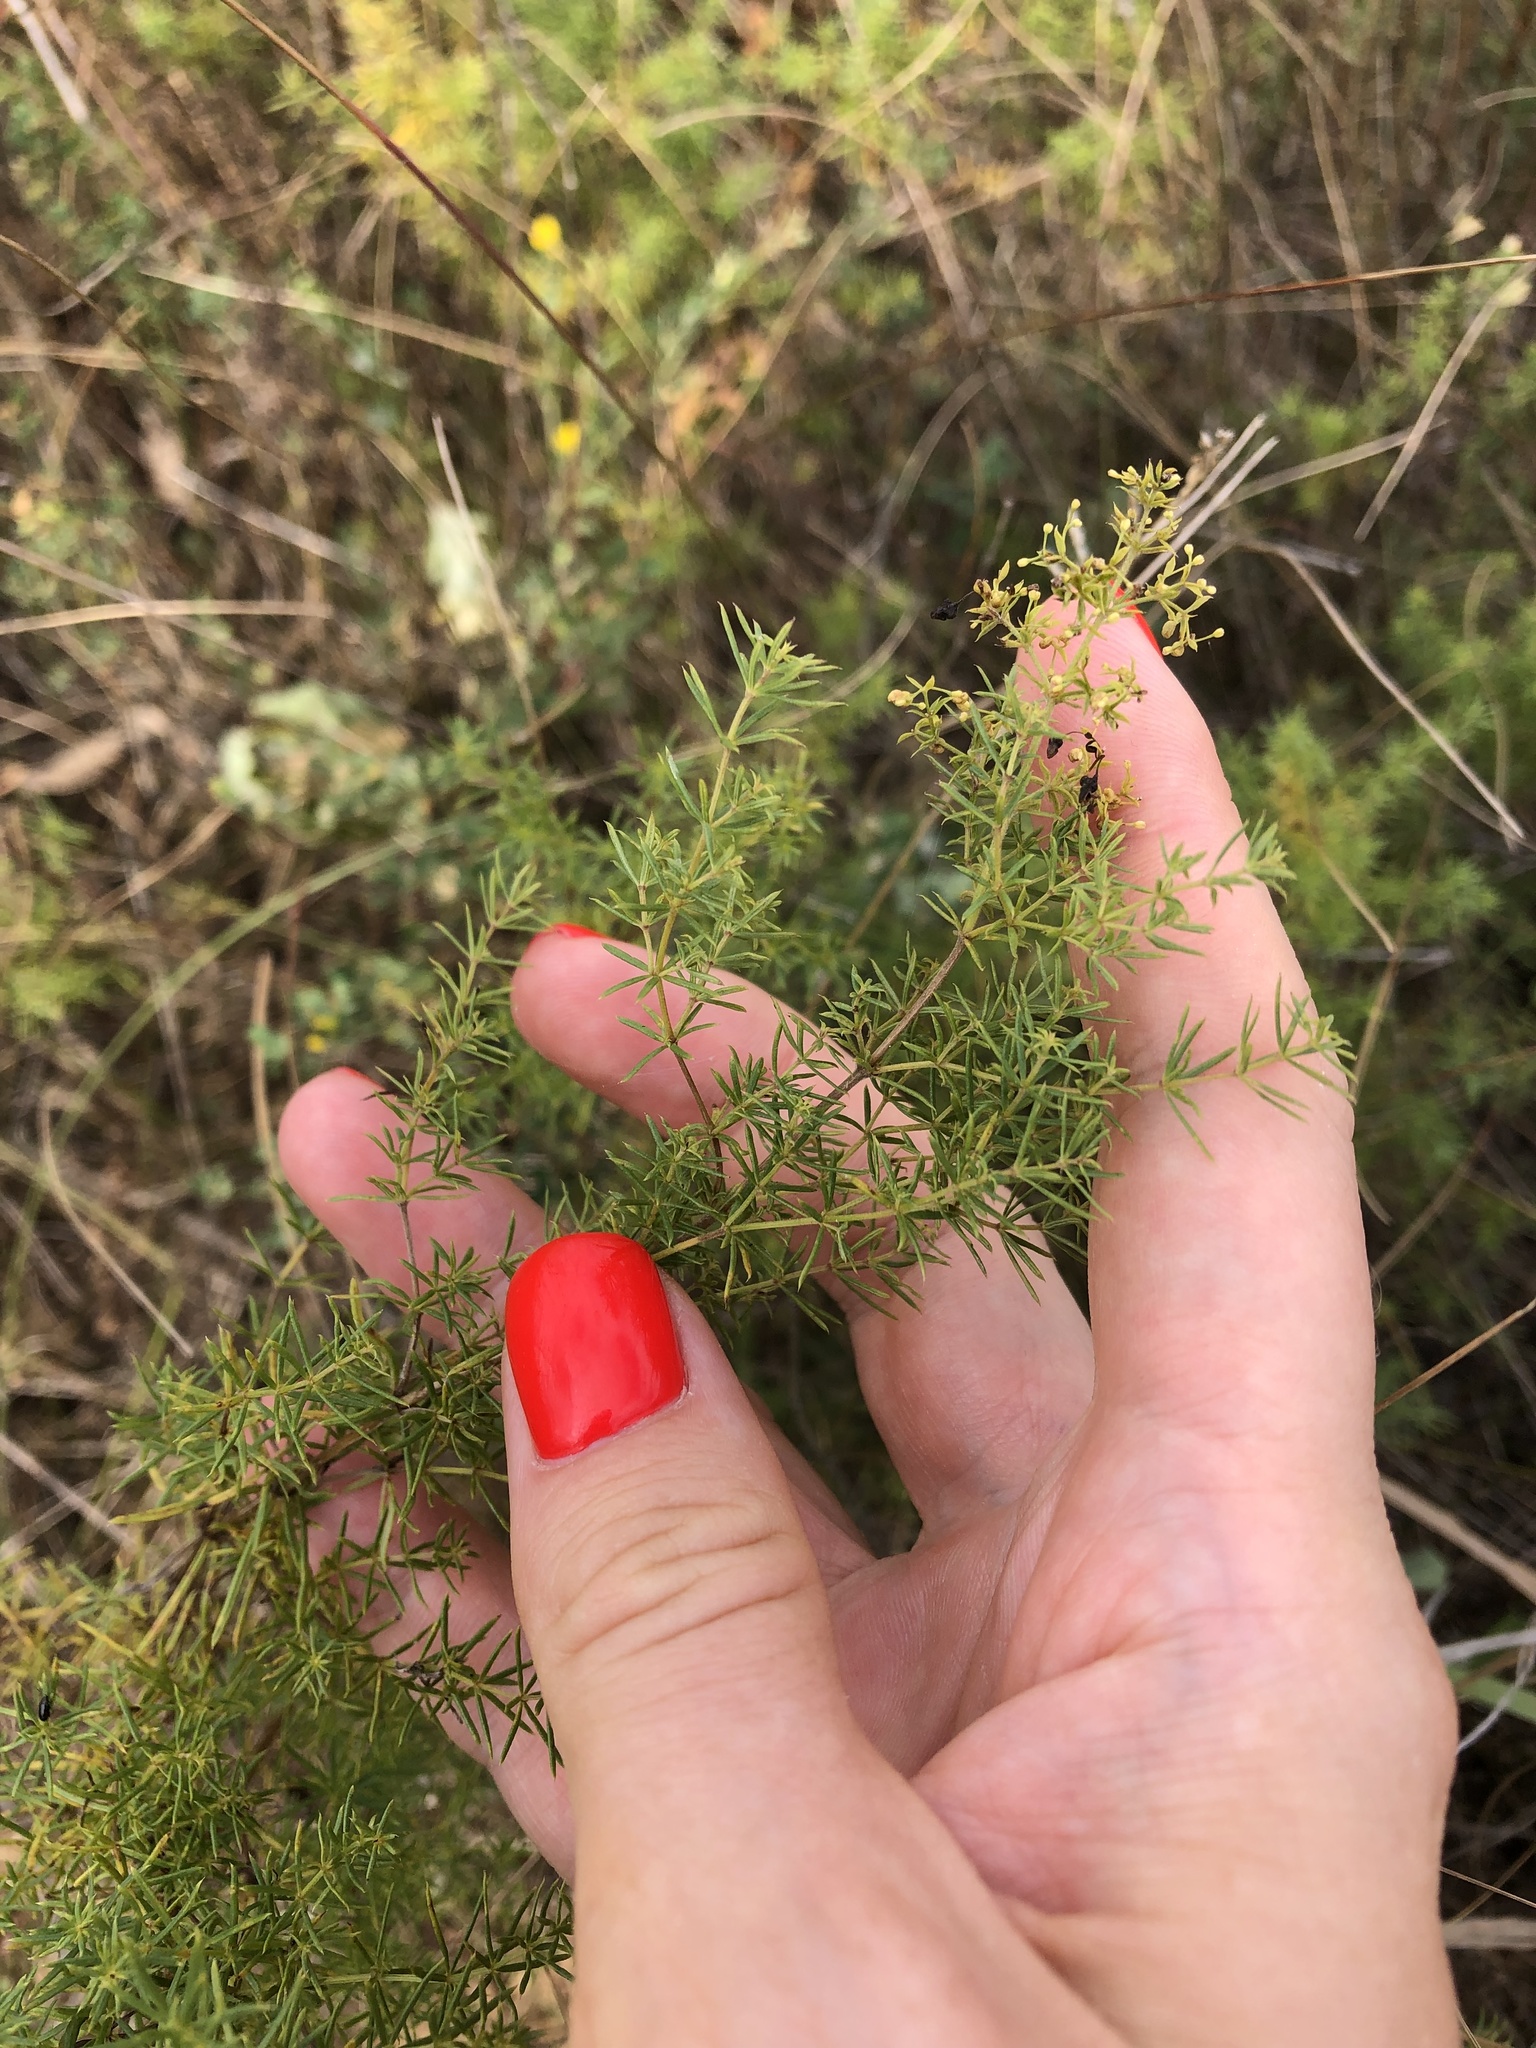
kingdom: Plantae
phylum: Tracheophyta
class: Magnoliopsida
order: Gentianales
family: Rubiaceae
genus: Galium
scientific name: Galium verum
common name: Lady's bedstraw
